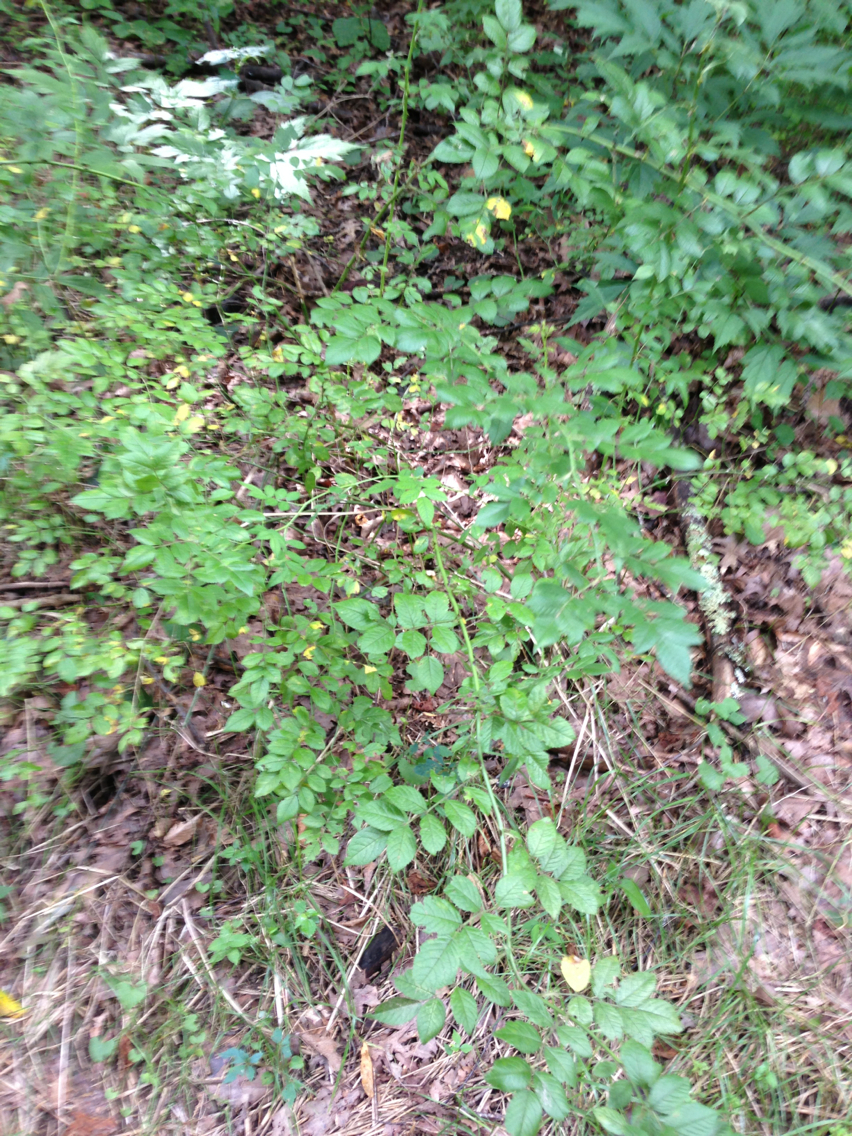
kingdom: Plantae
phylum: Tracheophyta
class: Magnoliopsida
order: Rosales
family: Rosaceae
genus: Rosa
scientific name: Rosa multiflora
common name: Multiflora rose
